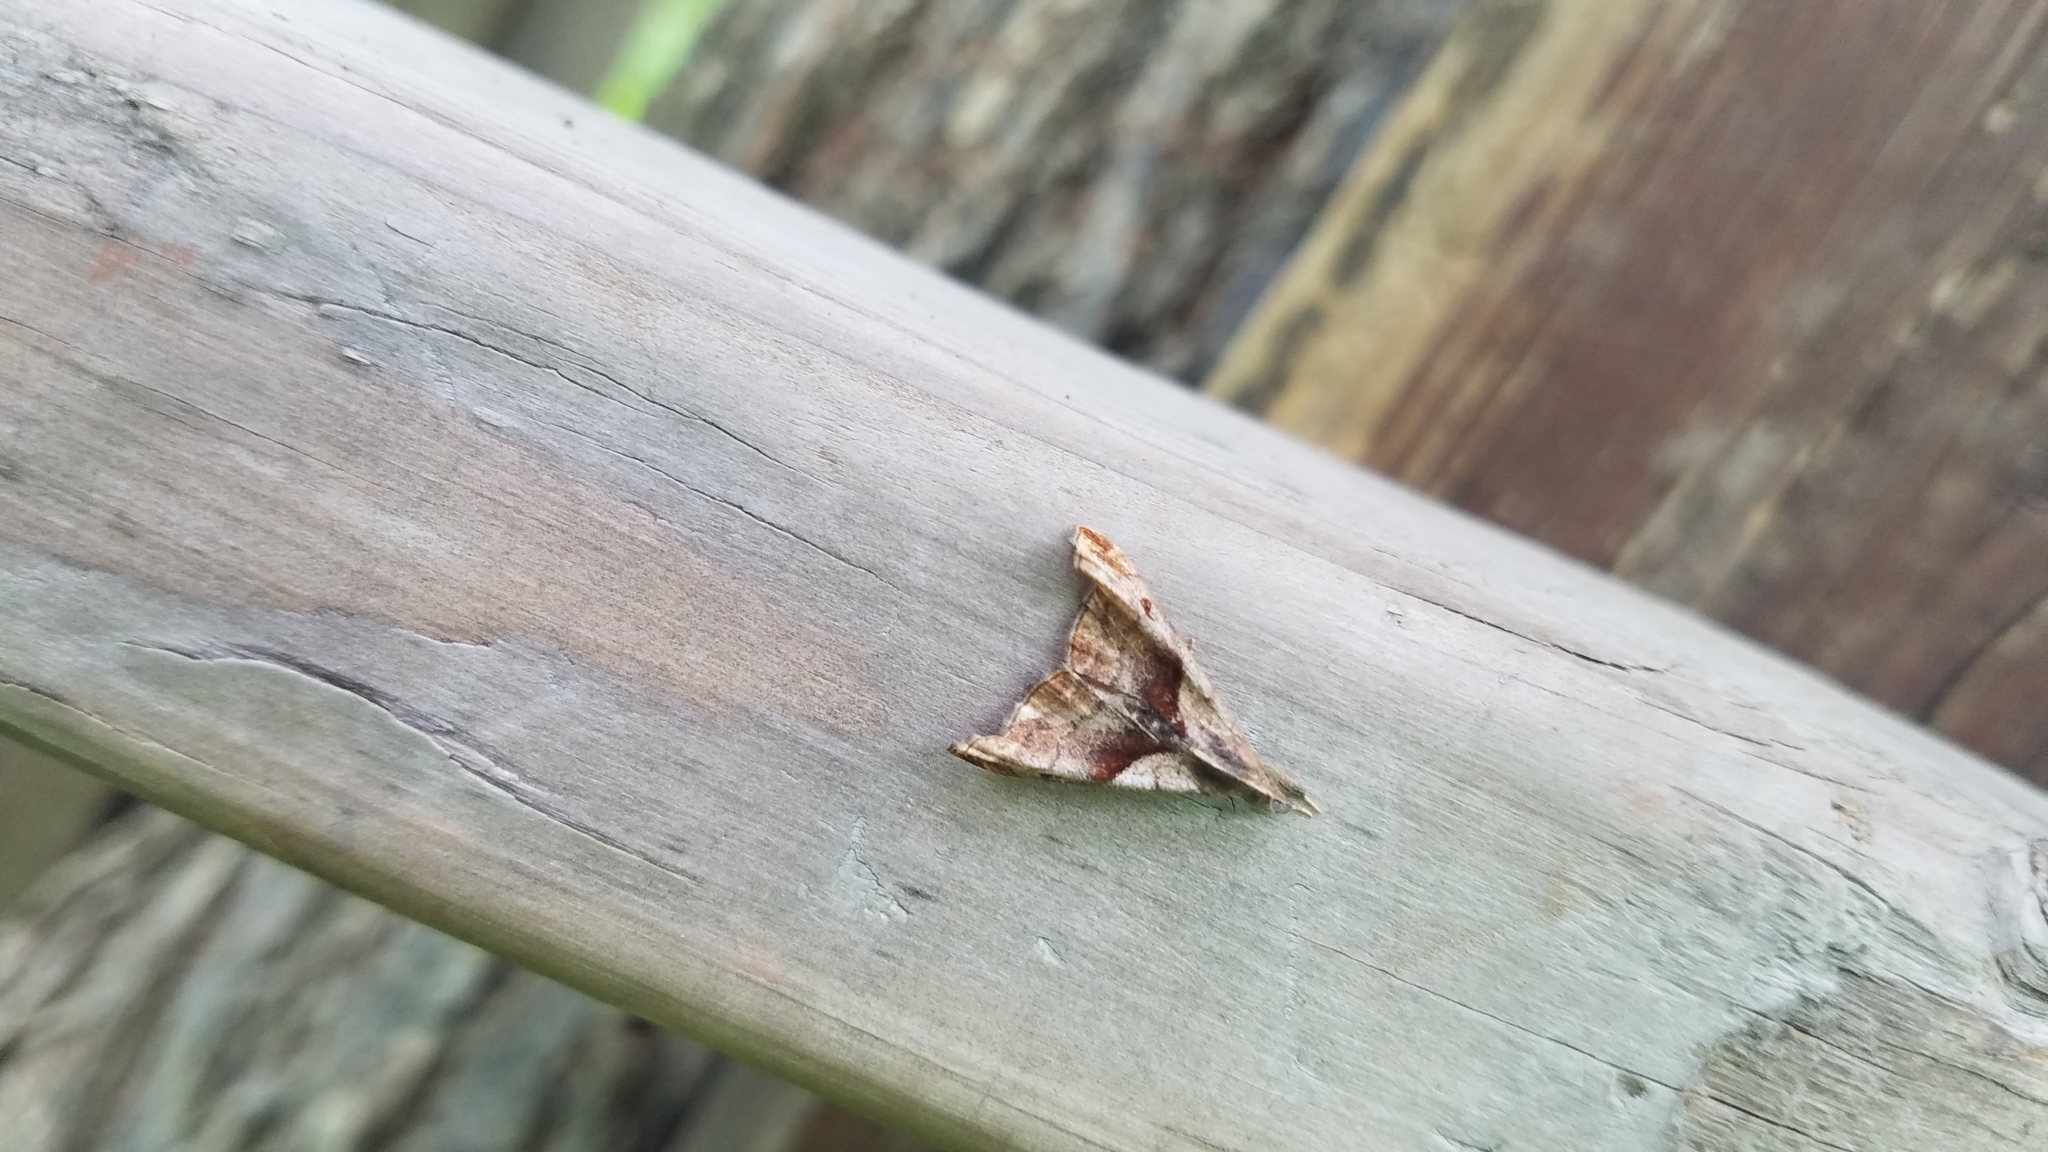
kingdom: Animalia
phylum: Arthropoda
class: Insecta
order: Lepidoptera
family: Erebidae
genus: Palthis
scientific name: Palthis angulalis
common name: Dark-spotted palthis moth
